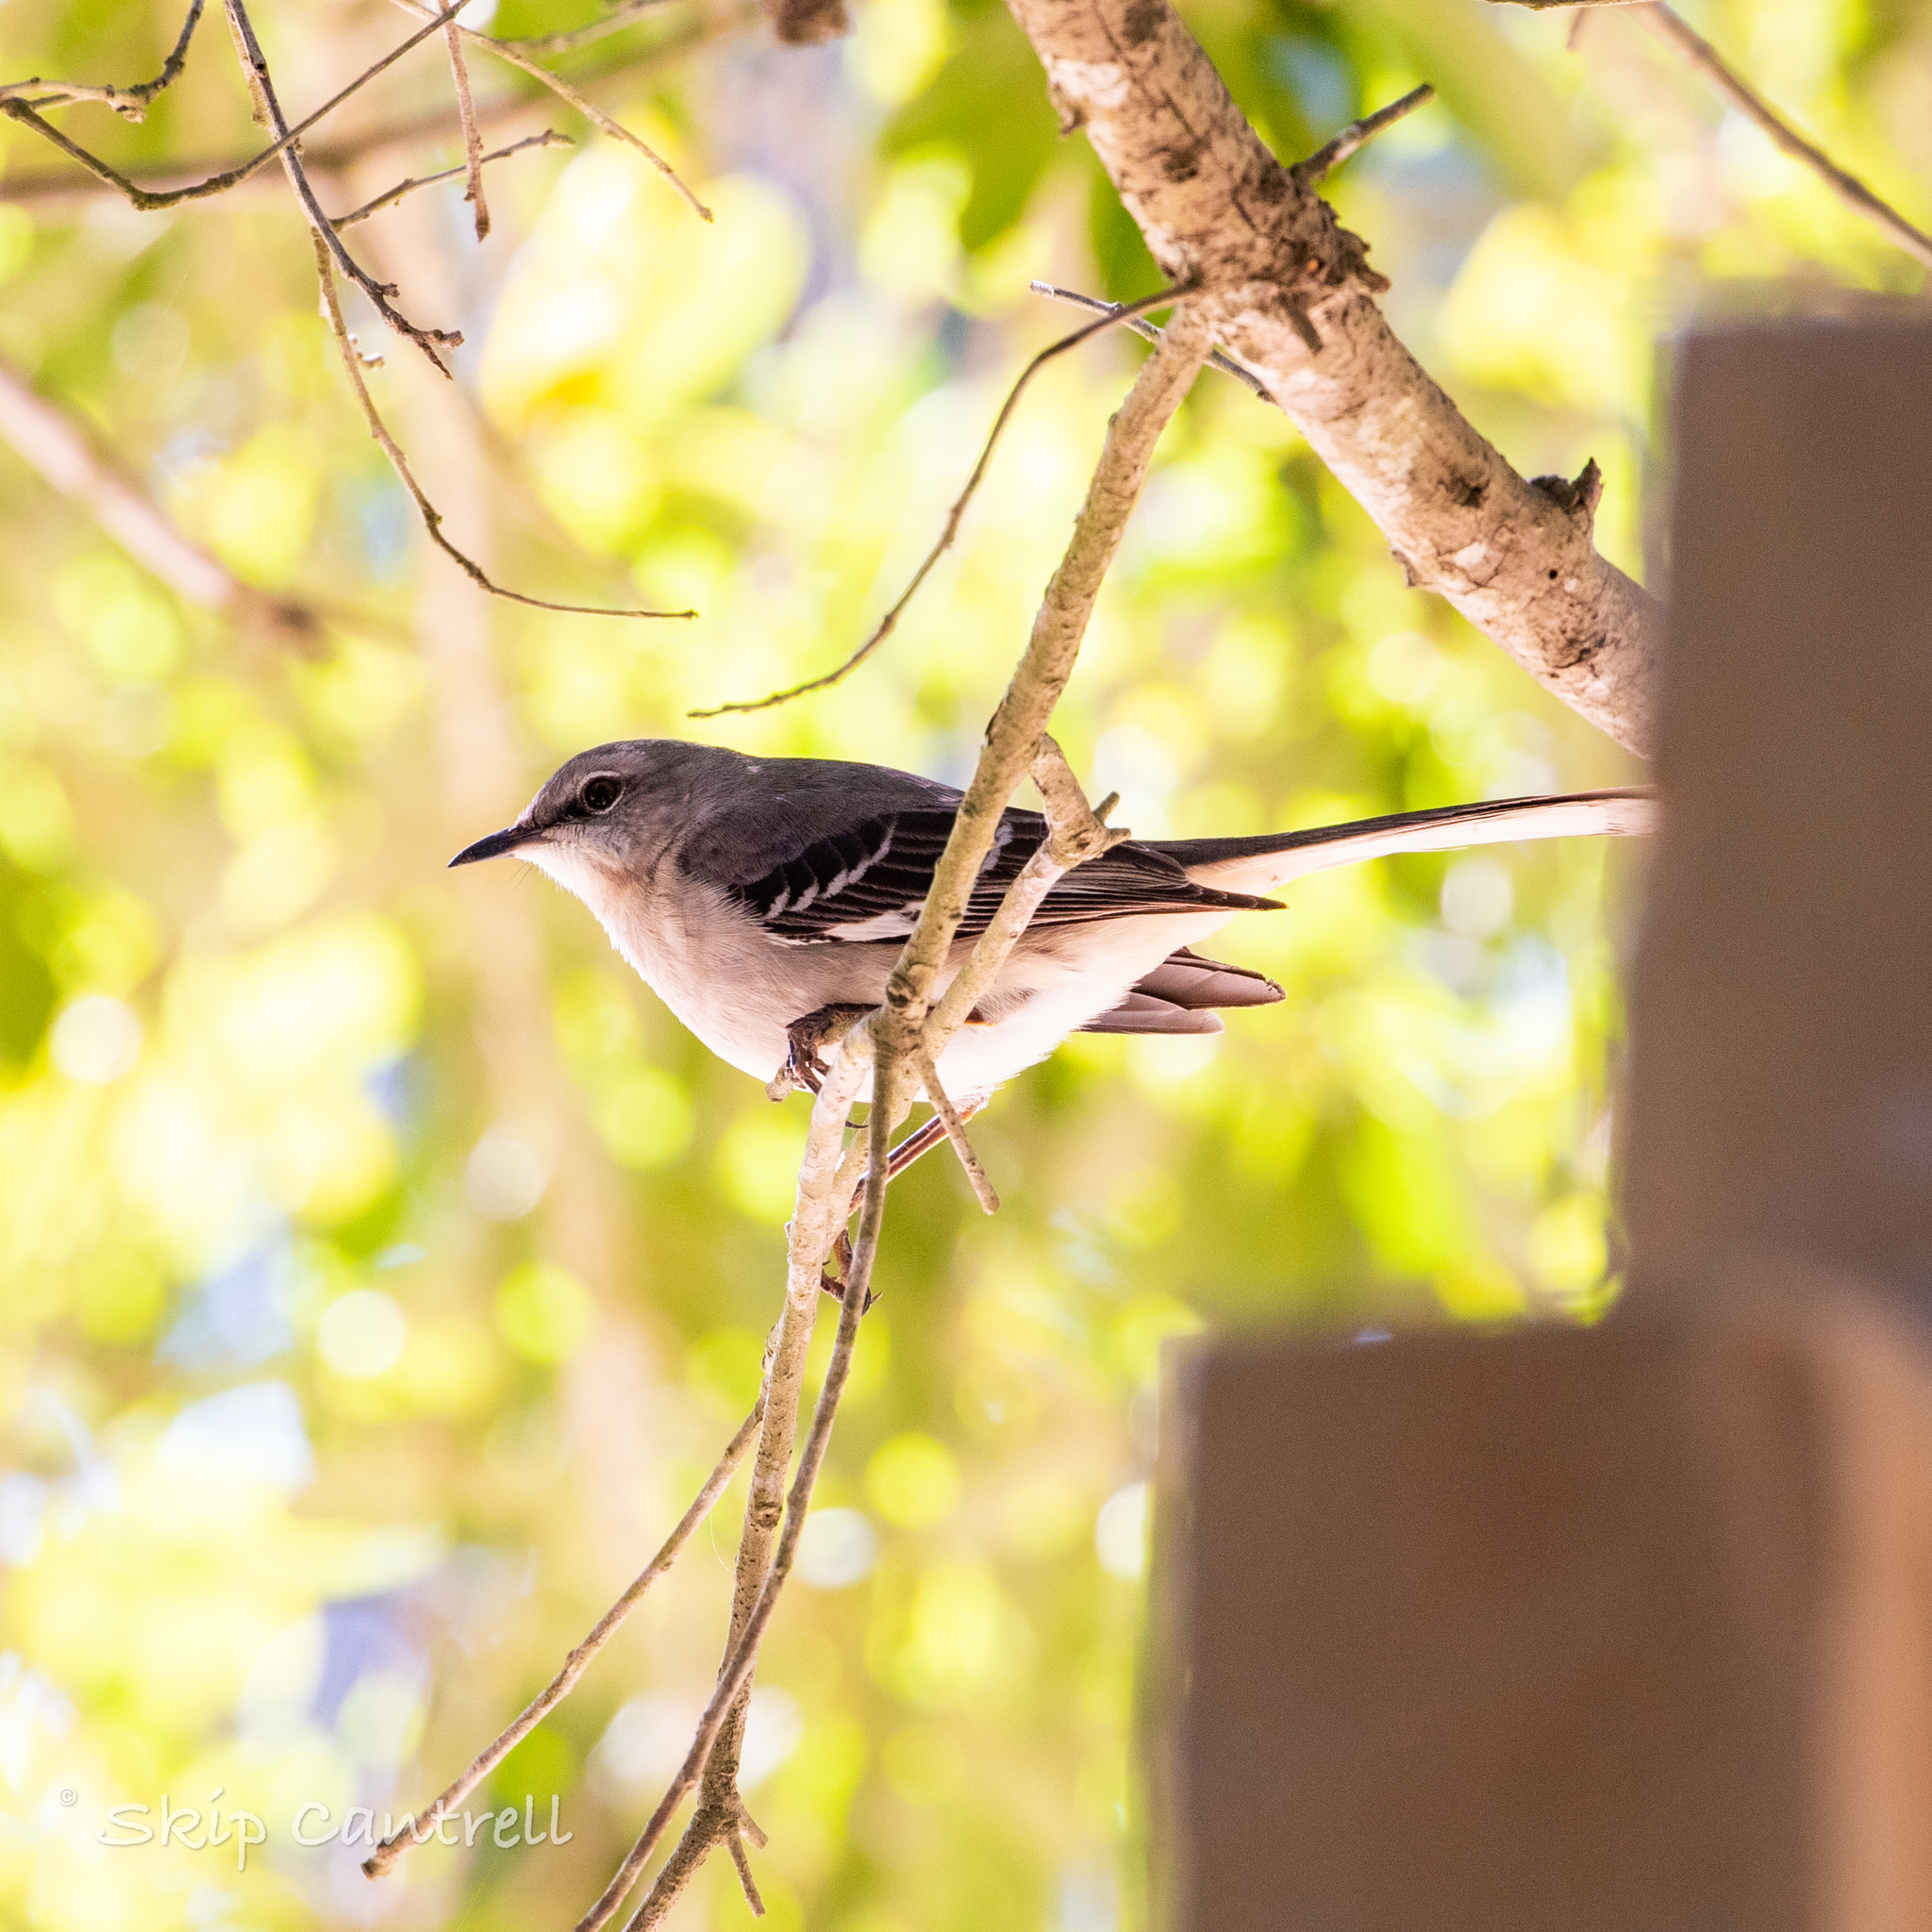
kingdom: Animalia
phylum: Chordata
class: Aves
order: Passeriformes
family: Mimidae
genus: Mimus
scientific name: Mimus polyglottos
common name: Northern mockingbird
